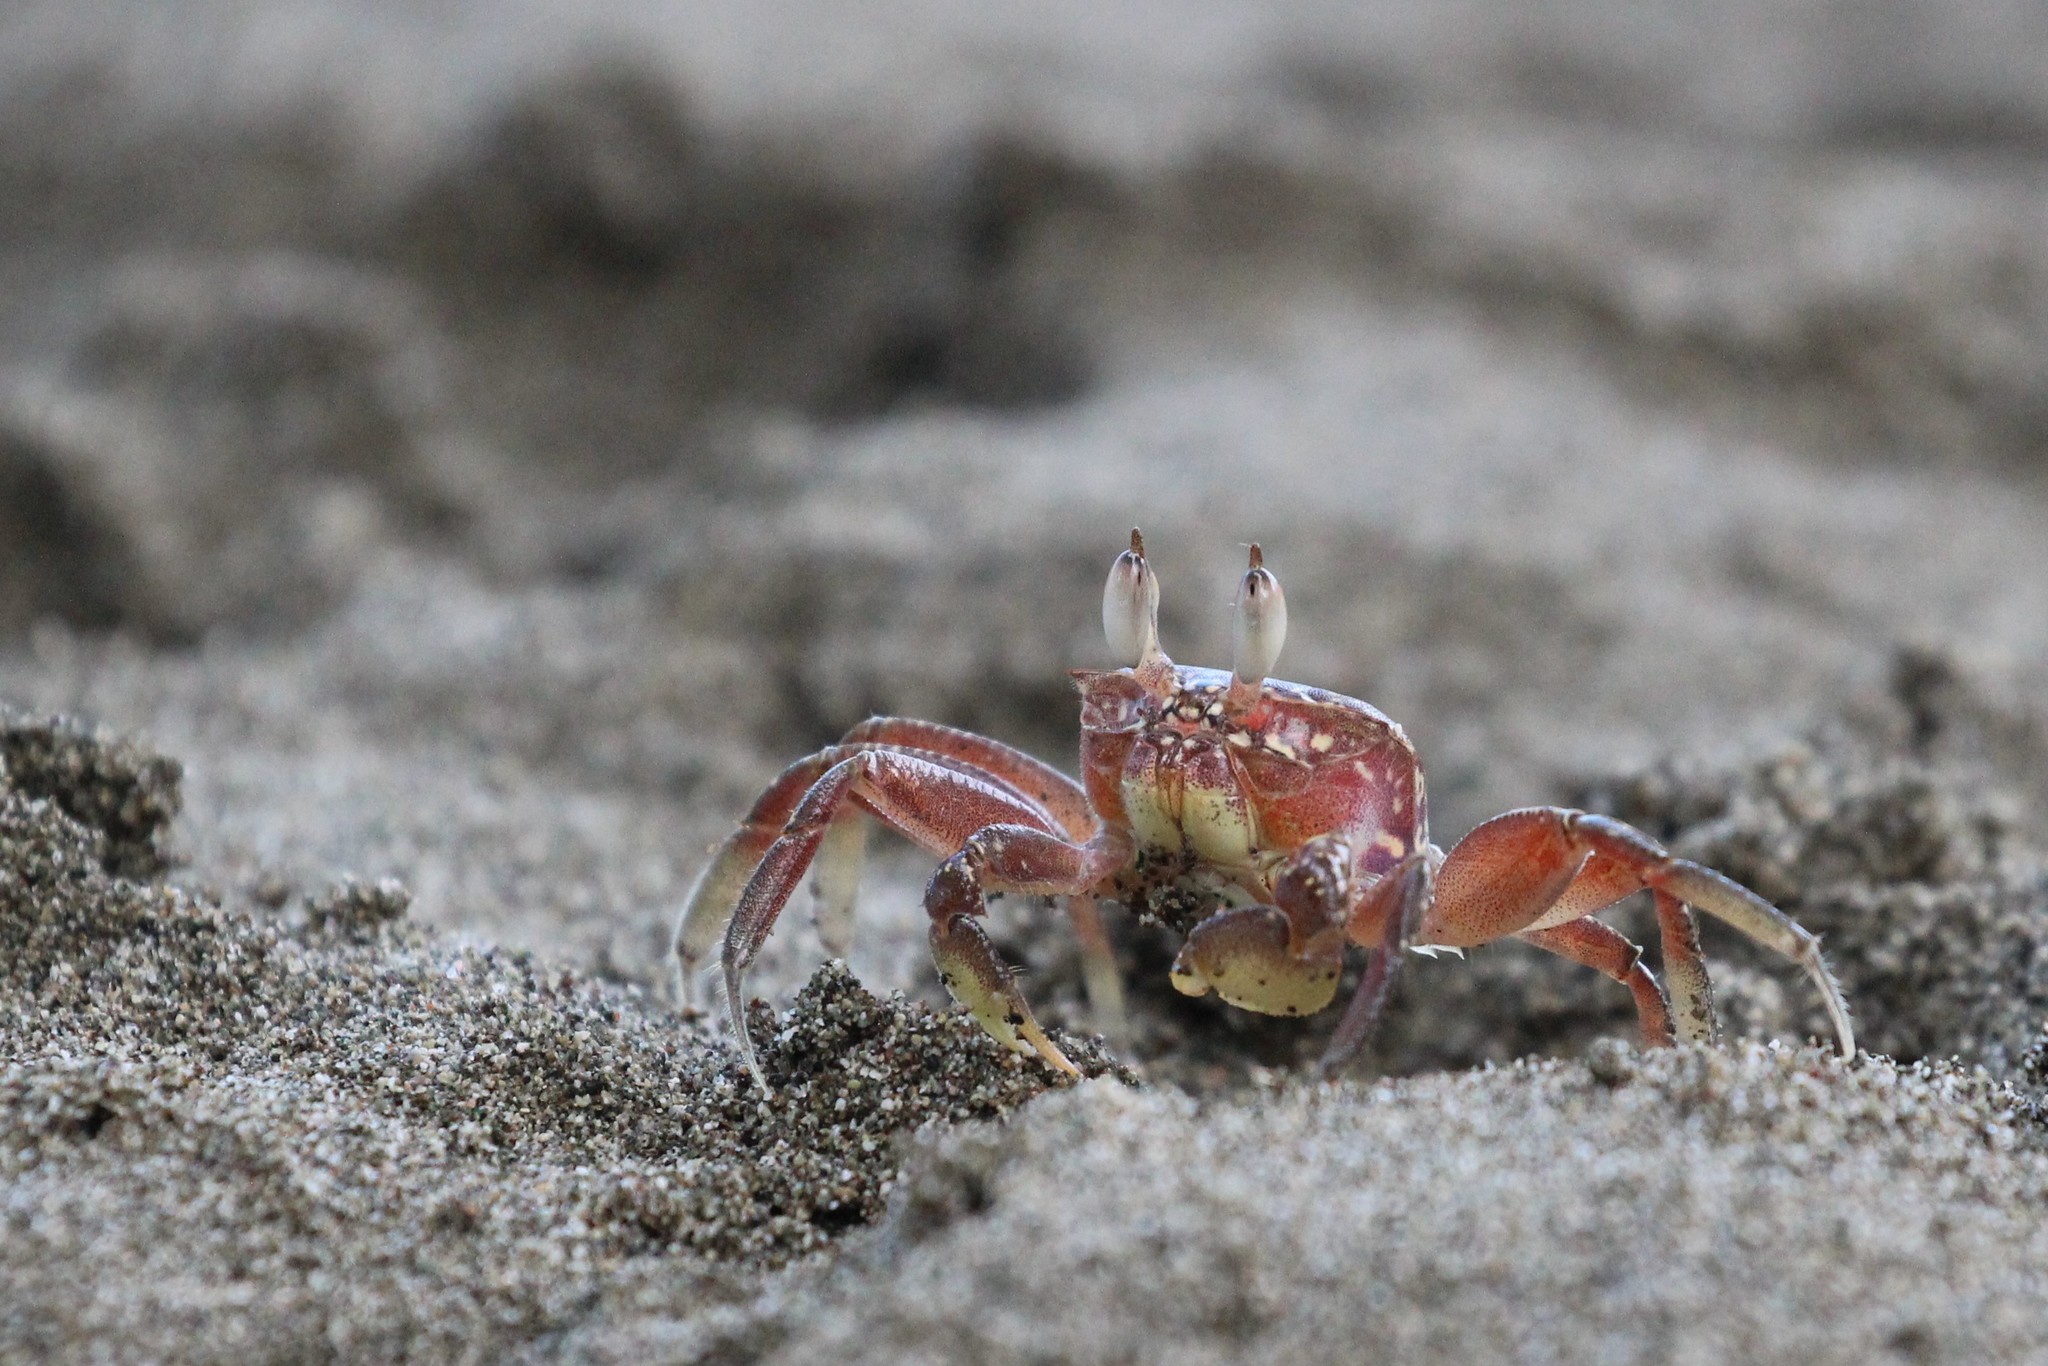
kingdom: Animalia
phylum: Arthropoda
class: Malacostraca
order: Decapoda
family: Ocypodidae
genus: Ocypode
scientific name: Ocypode gaudichaudii
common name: Pacific ghost crab
